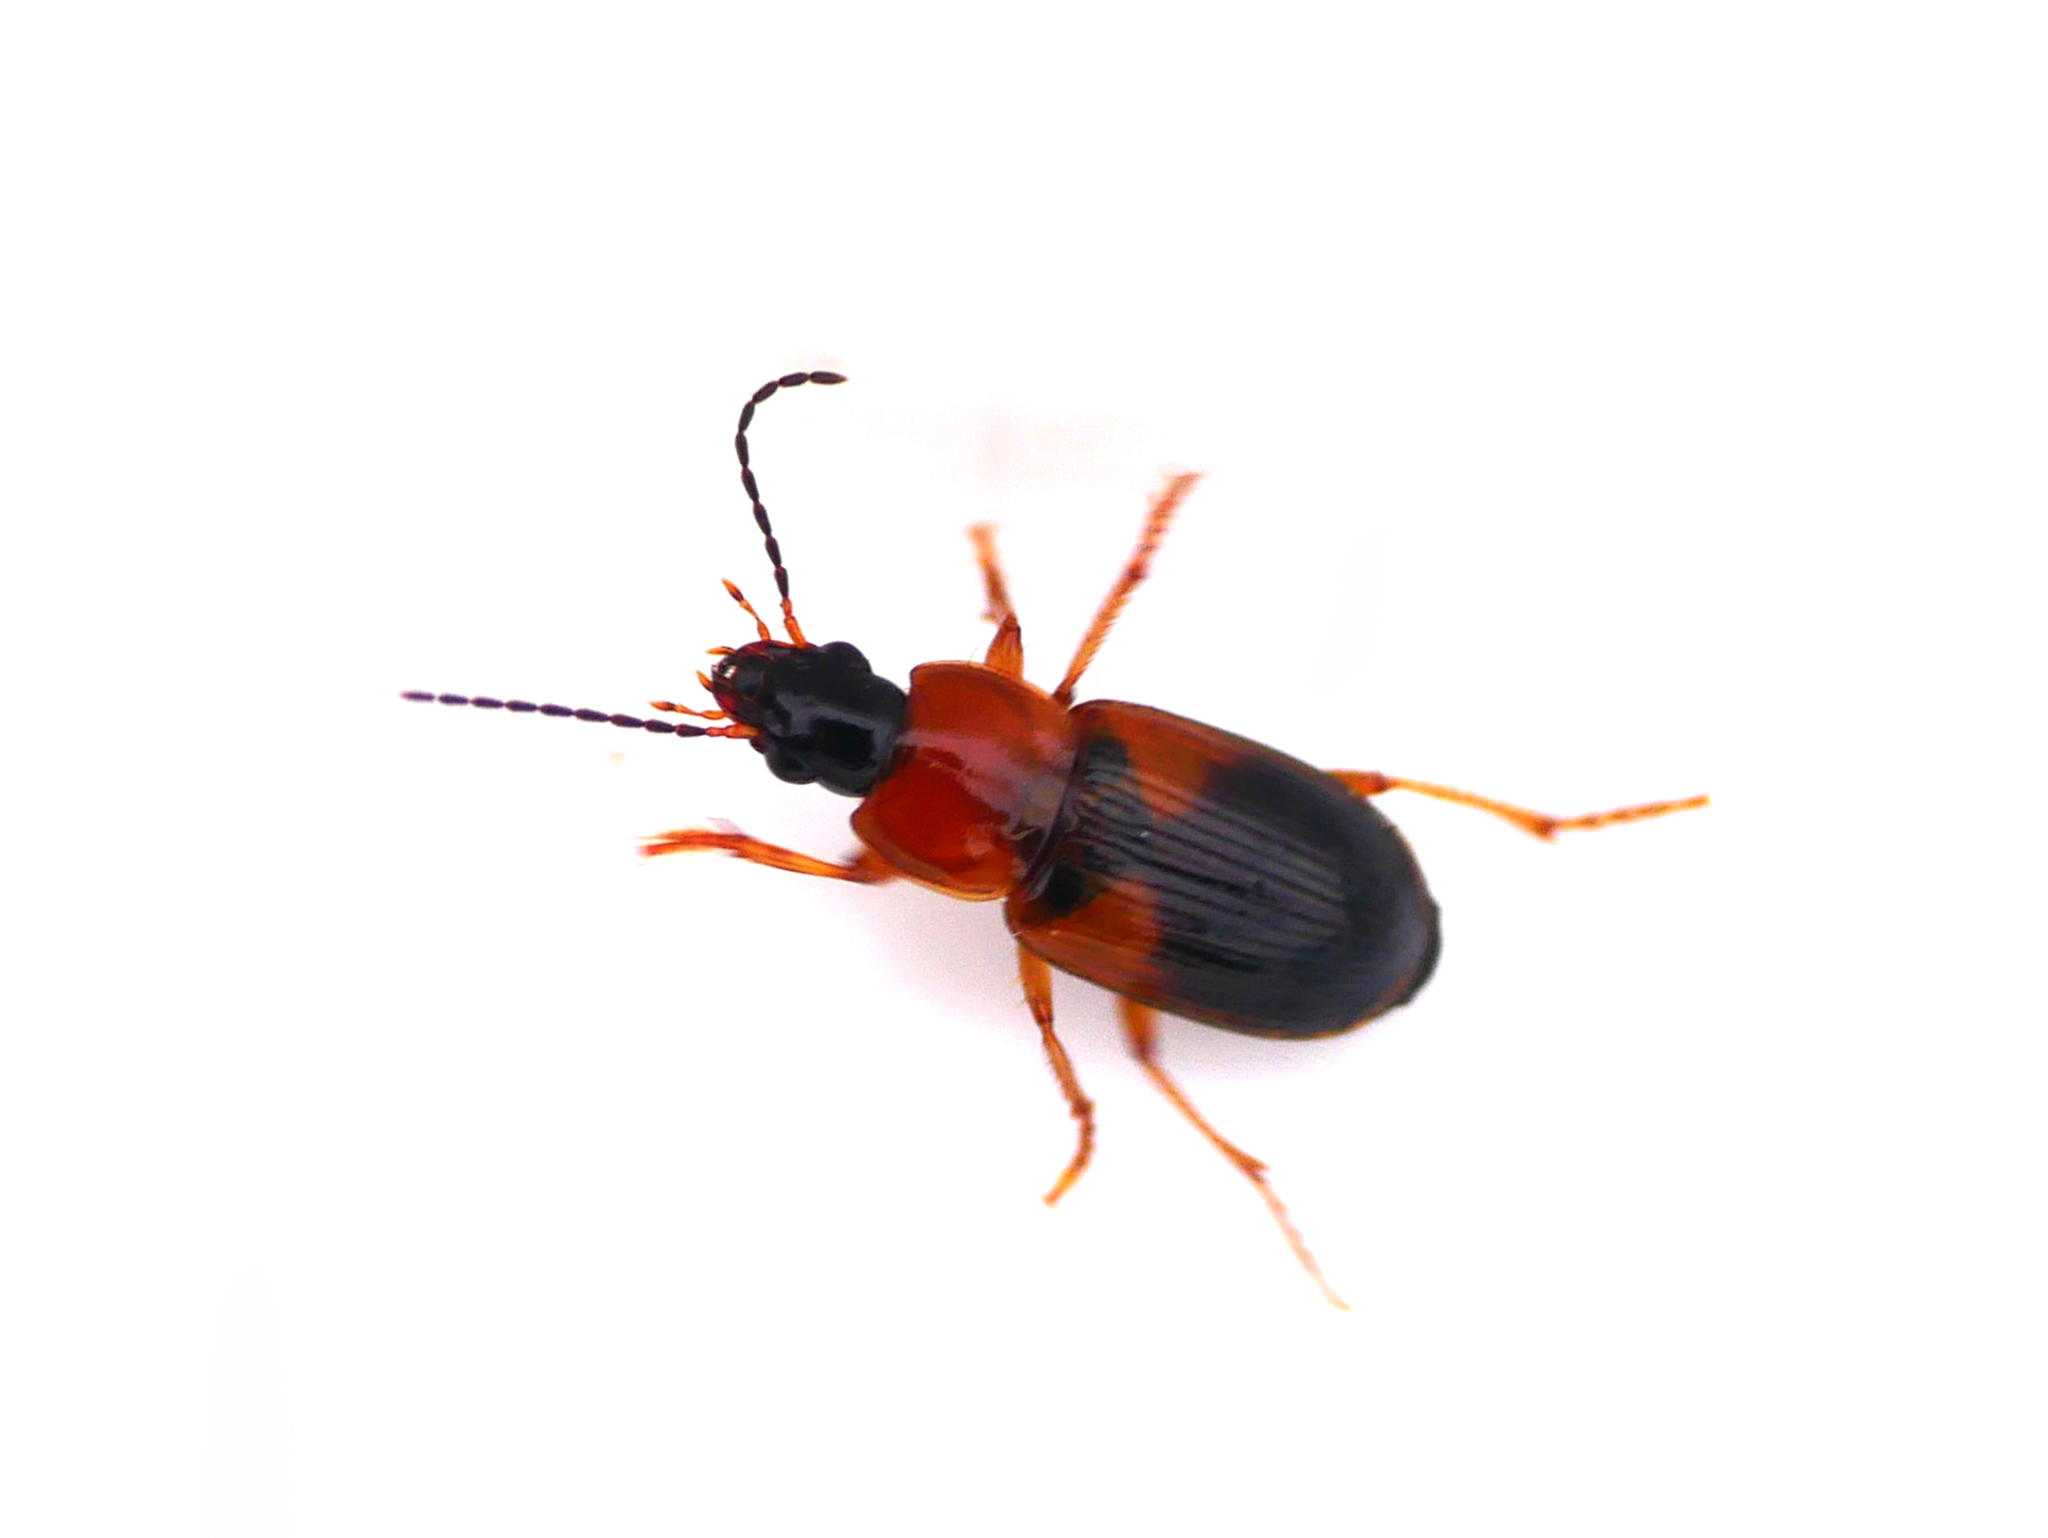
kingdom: Animalia
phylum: Arthropoda
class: Insecta
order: Coleoptera
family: Carabidae
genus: Stenolophus
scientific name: Stenolophus teutonus
